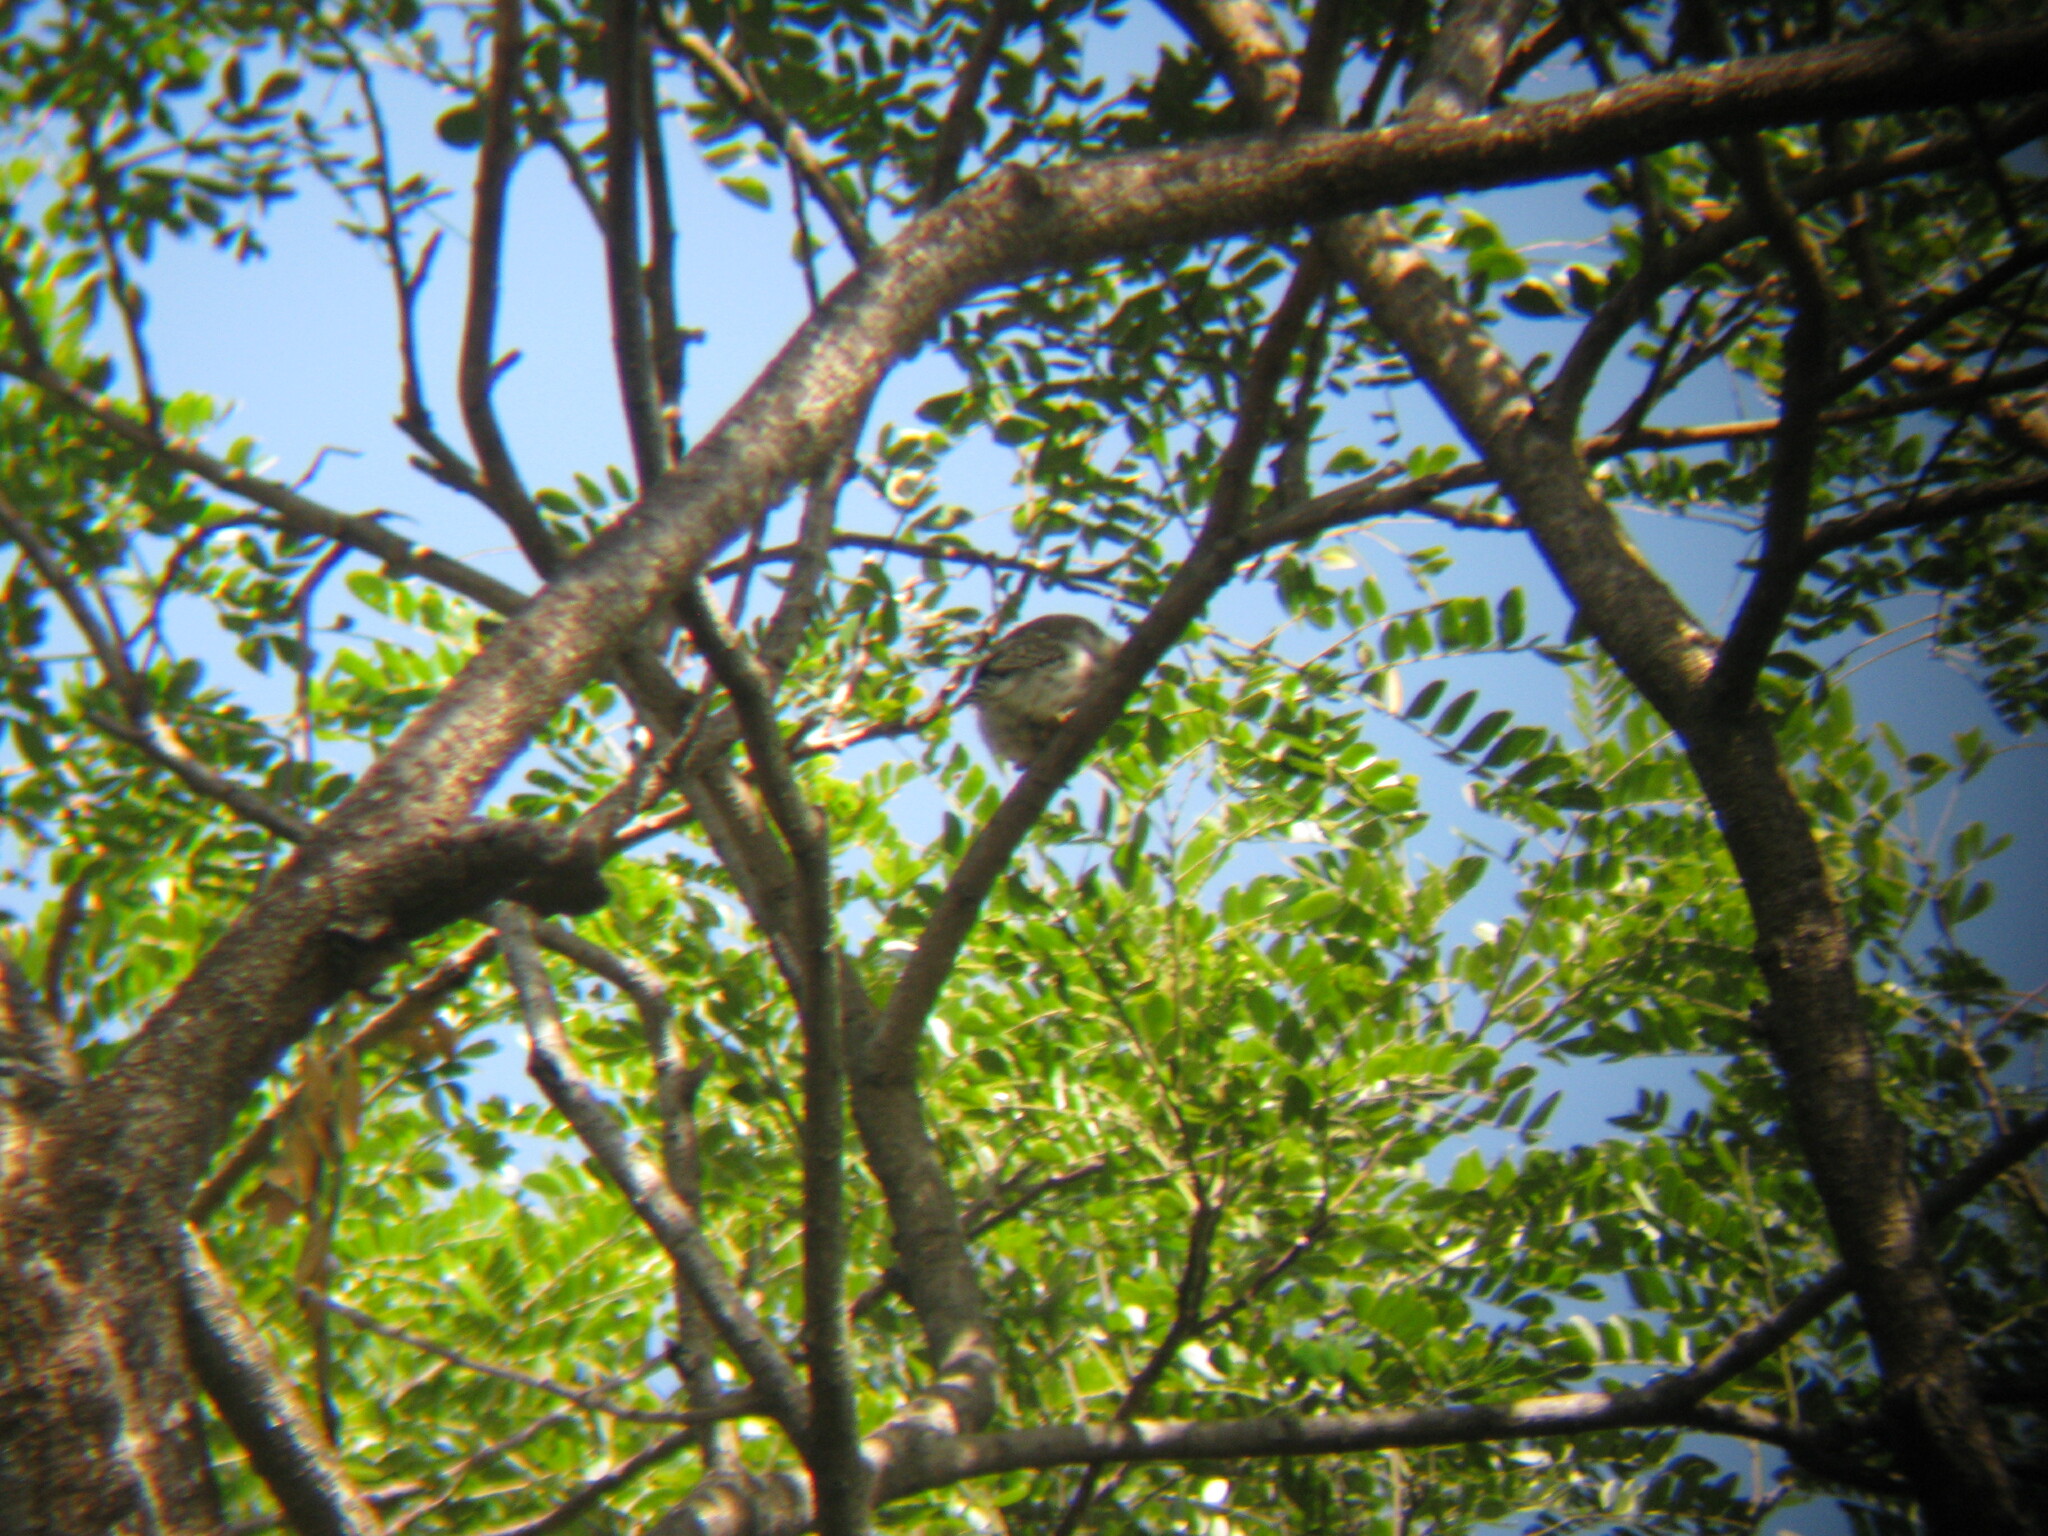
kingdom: Animalia
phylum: Chordata
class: Aves
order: Strigiformes
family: Strigidae
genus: Glaucidium
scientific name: Glaucidium brasilianum
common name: Ferruginous pygmy-owl
